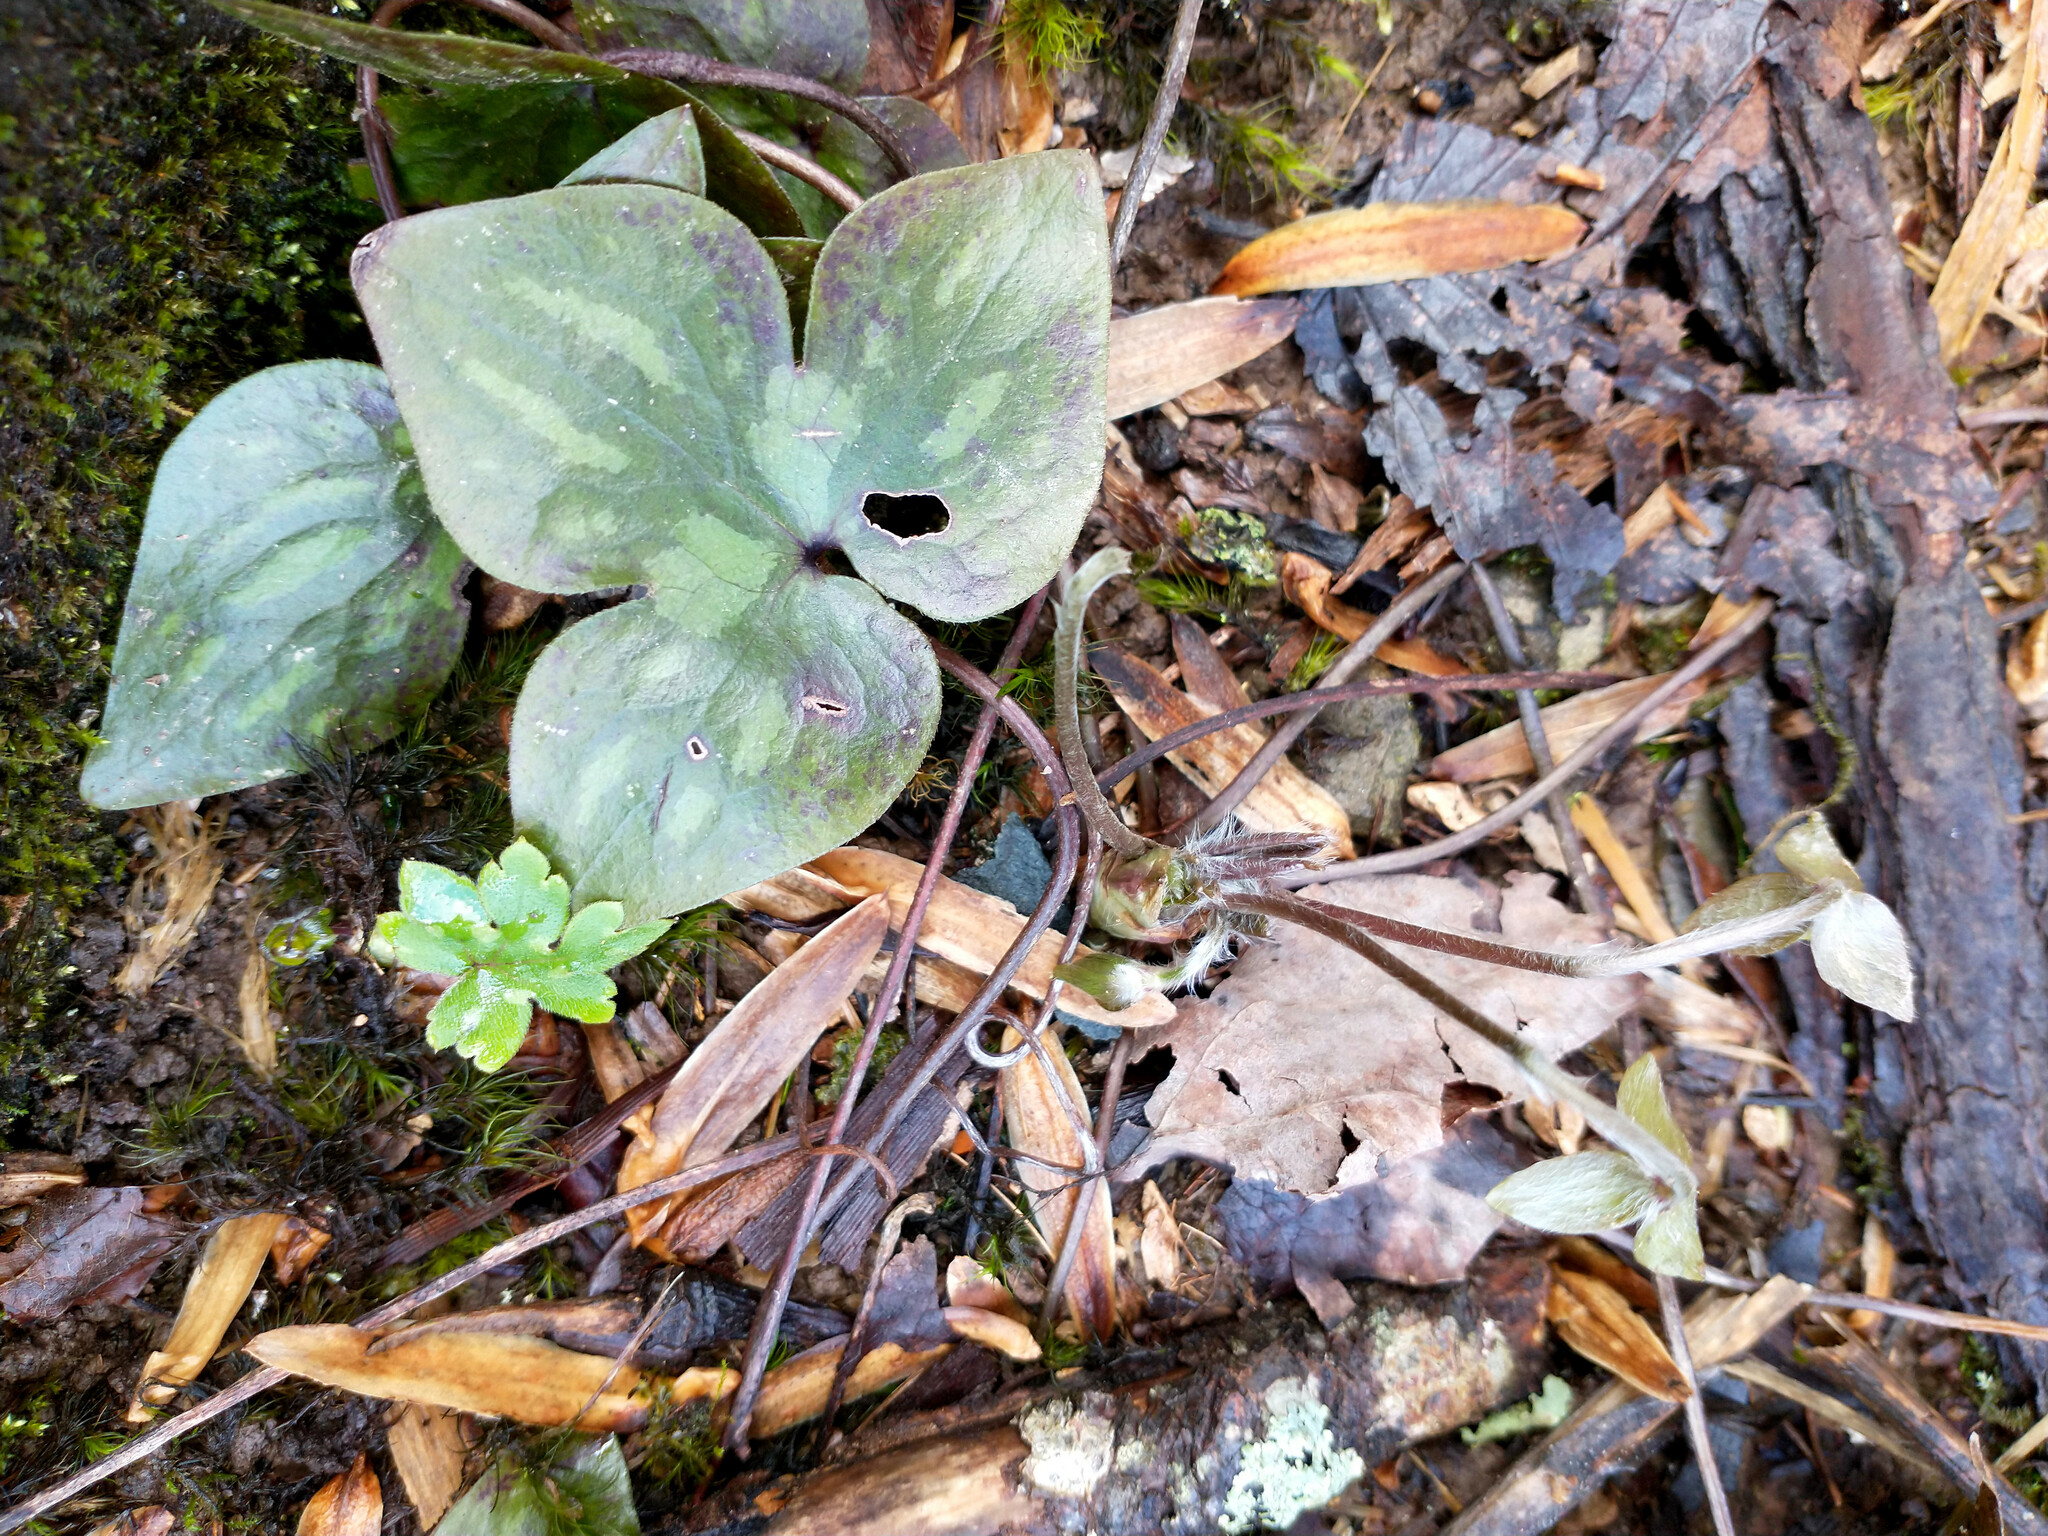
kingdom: Plantae
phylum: Tracheophyta
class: Magnoliopsida
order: Ranunculales
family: Ranunculaceae
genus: Hepatica
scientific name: Hepatica acutiloba
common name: Sharp-lobed hepatica
